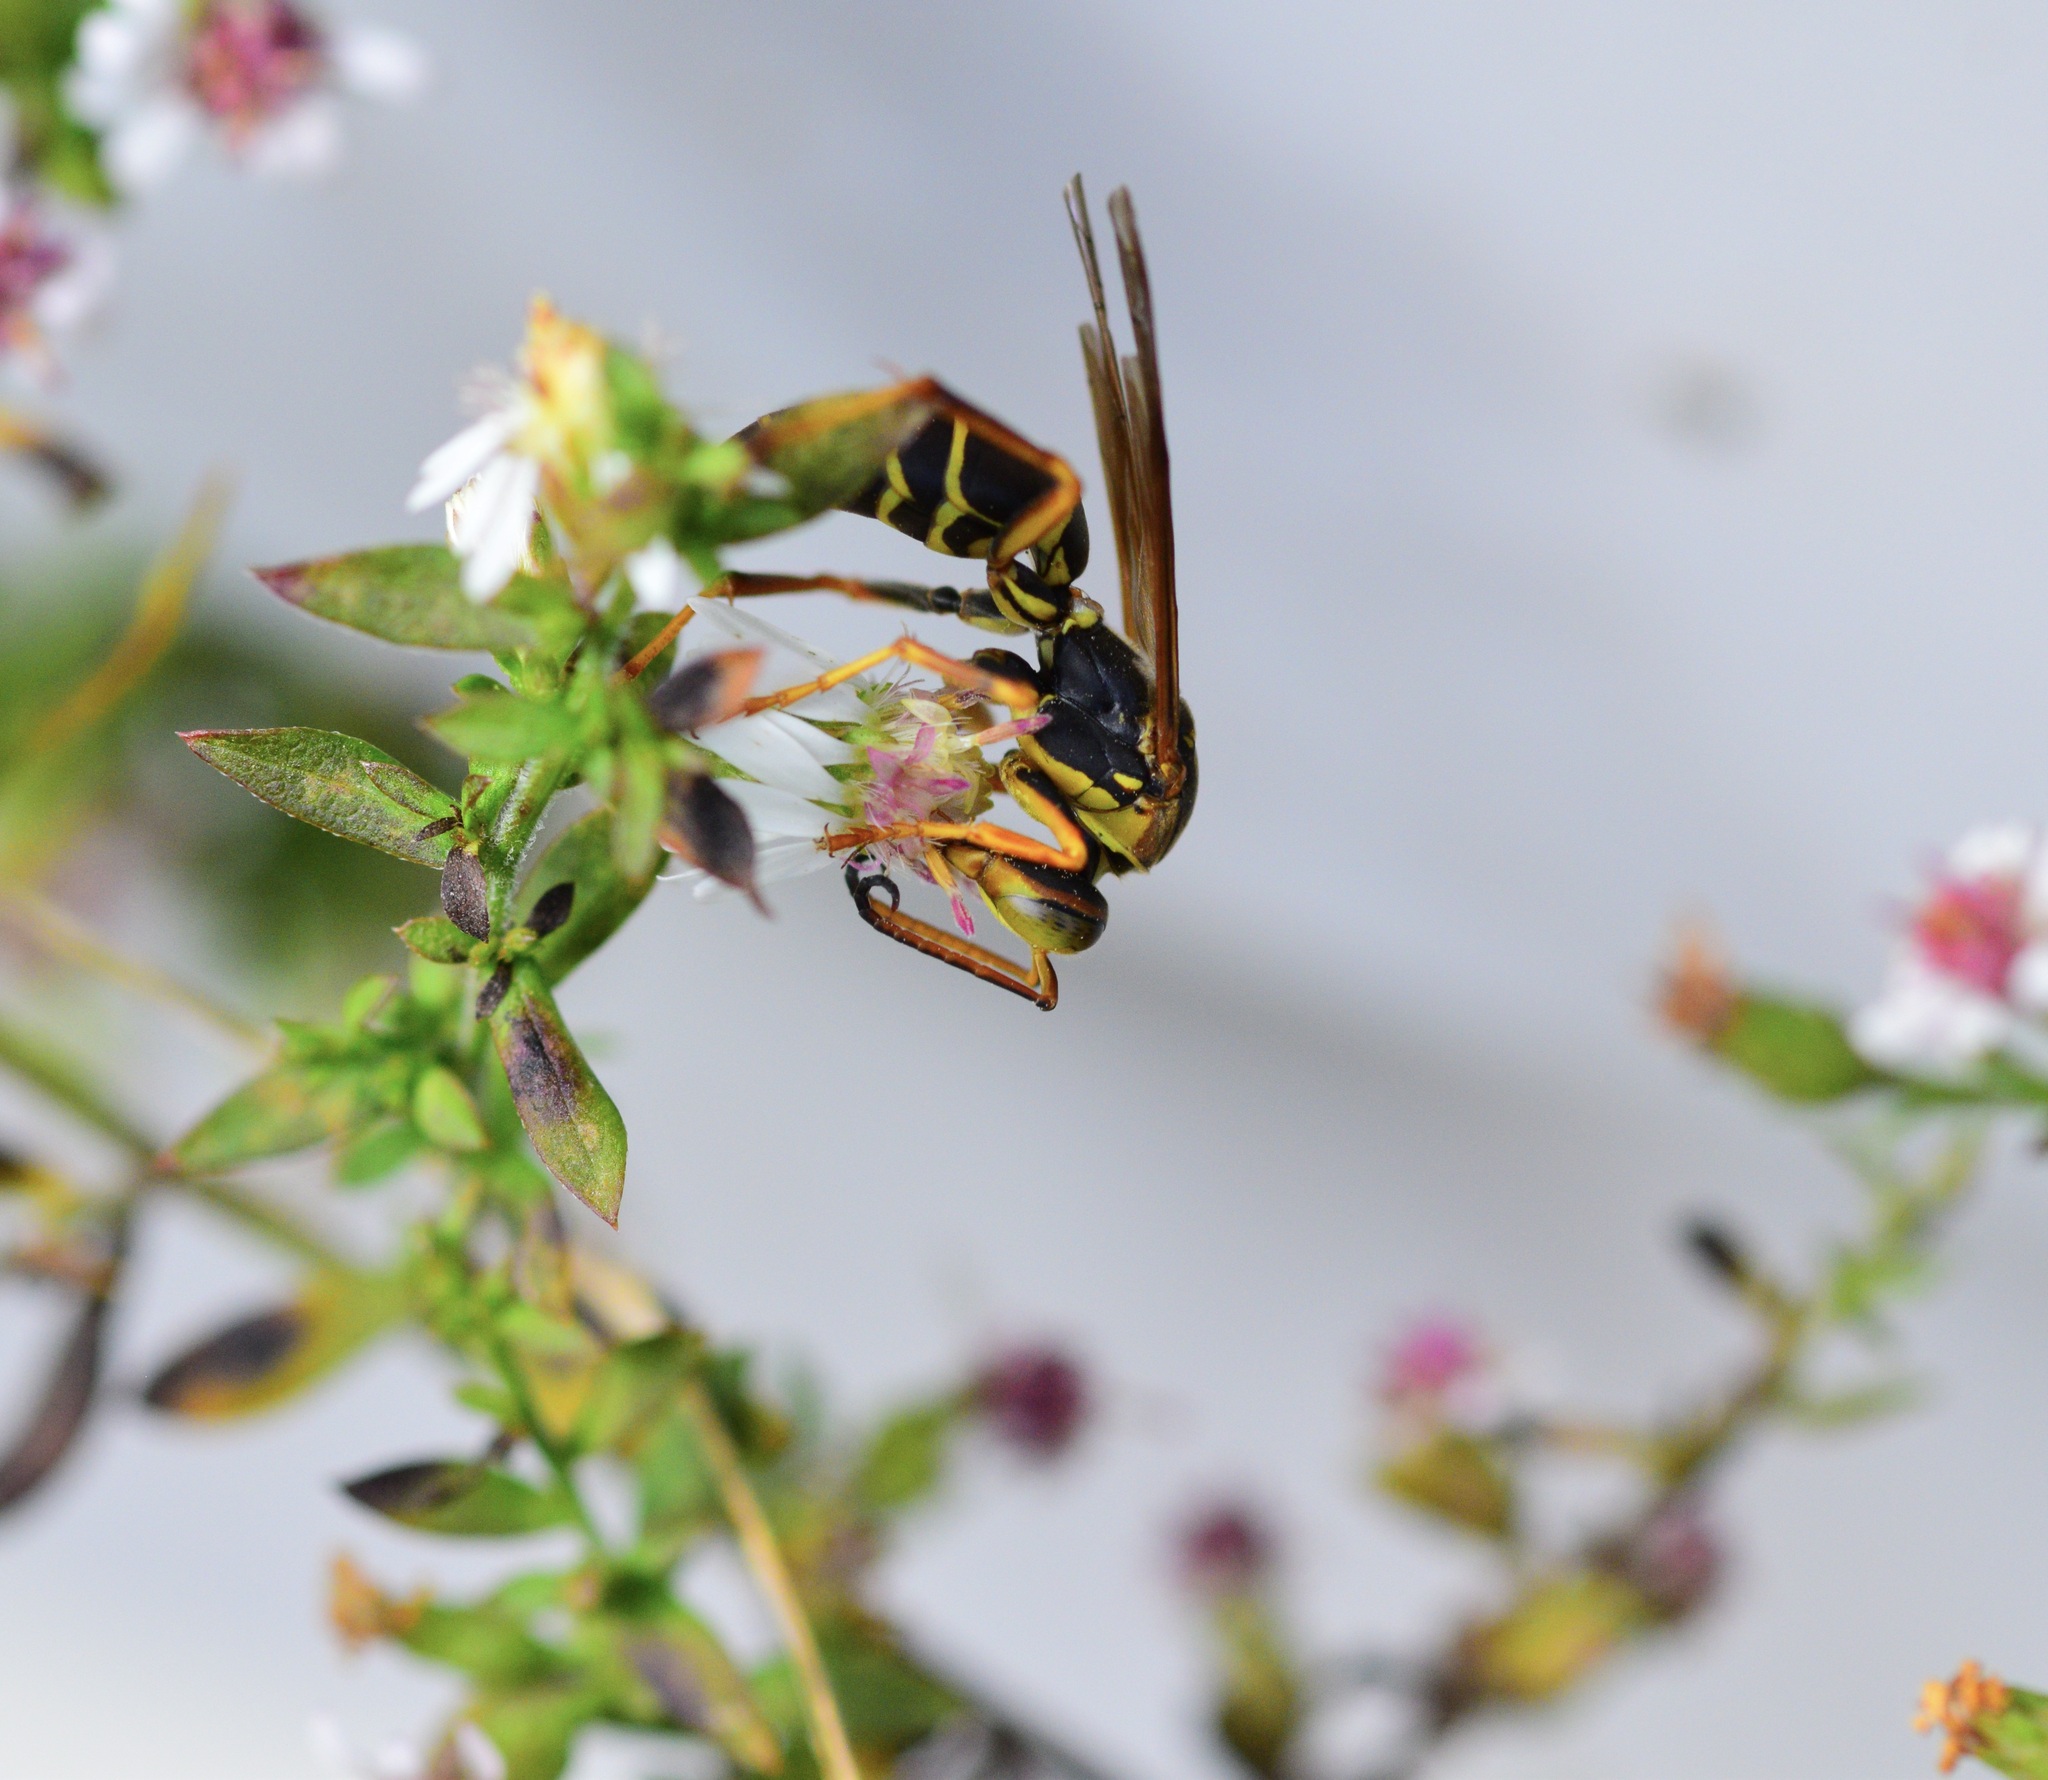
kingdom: Animalia
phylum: Arthropoda
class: Insecta
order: Hymenoptera
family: Eumenidae
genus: Polistes
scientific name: Polistes fuscatus
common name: Dark paper wasp
